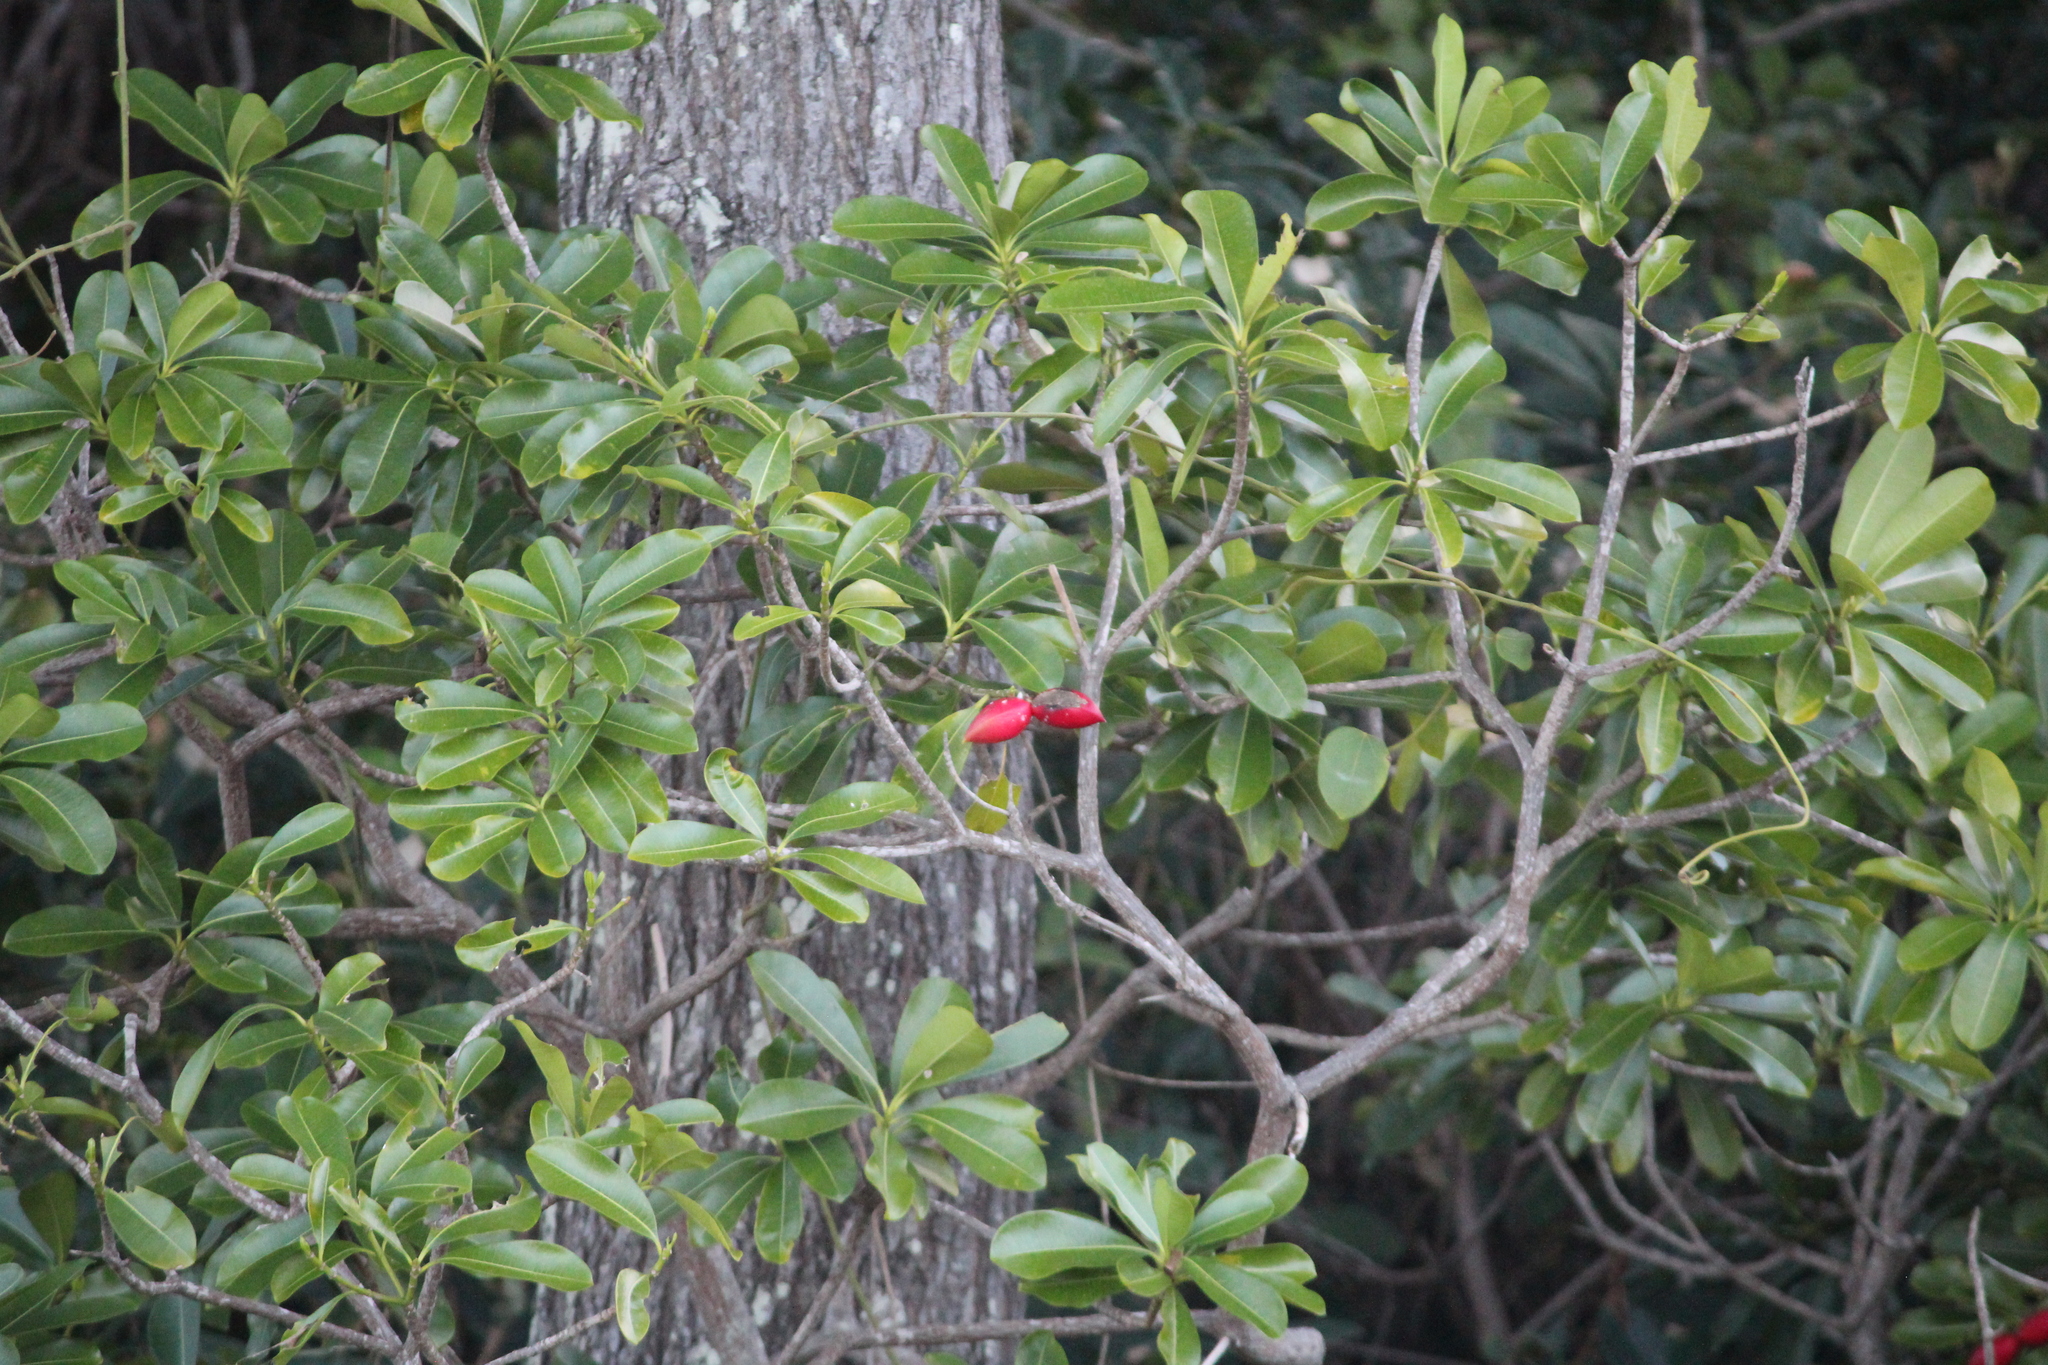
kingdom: Plantae
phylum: Tracheophyta
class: Magnoliopsida
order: Gentianales
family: Apocynaceae
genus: Ochrosia
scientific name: Ochrosia elliptica
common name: Elliptic yellowwood
